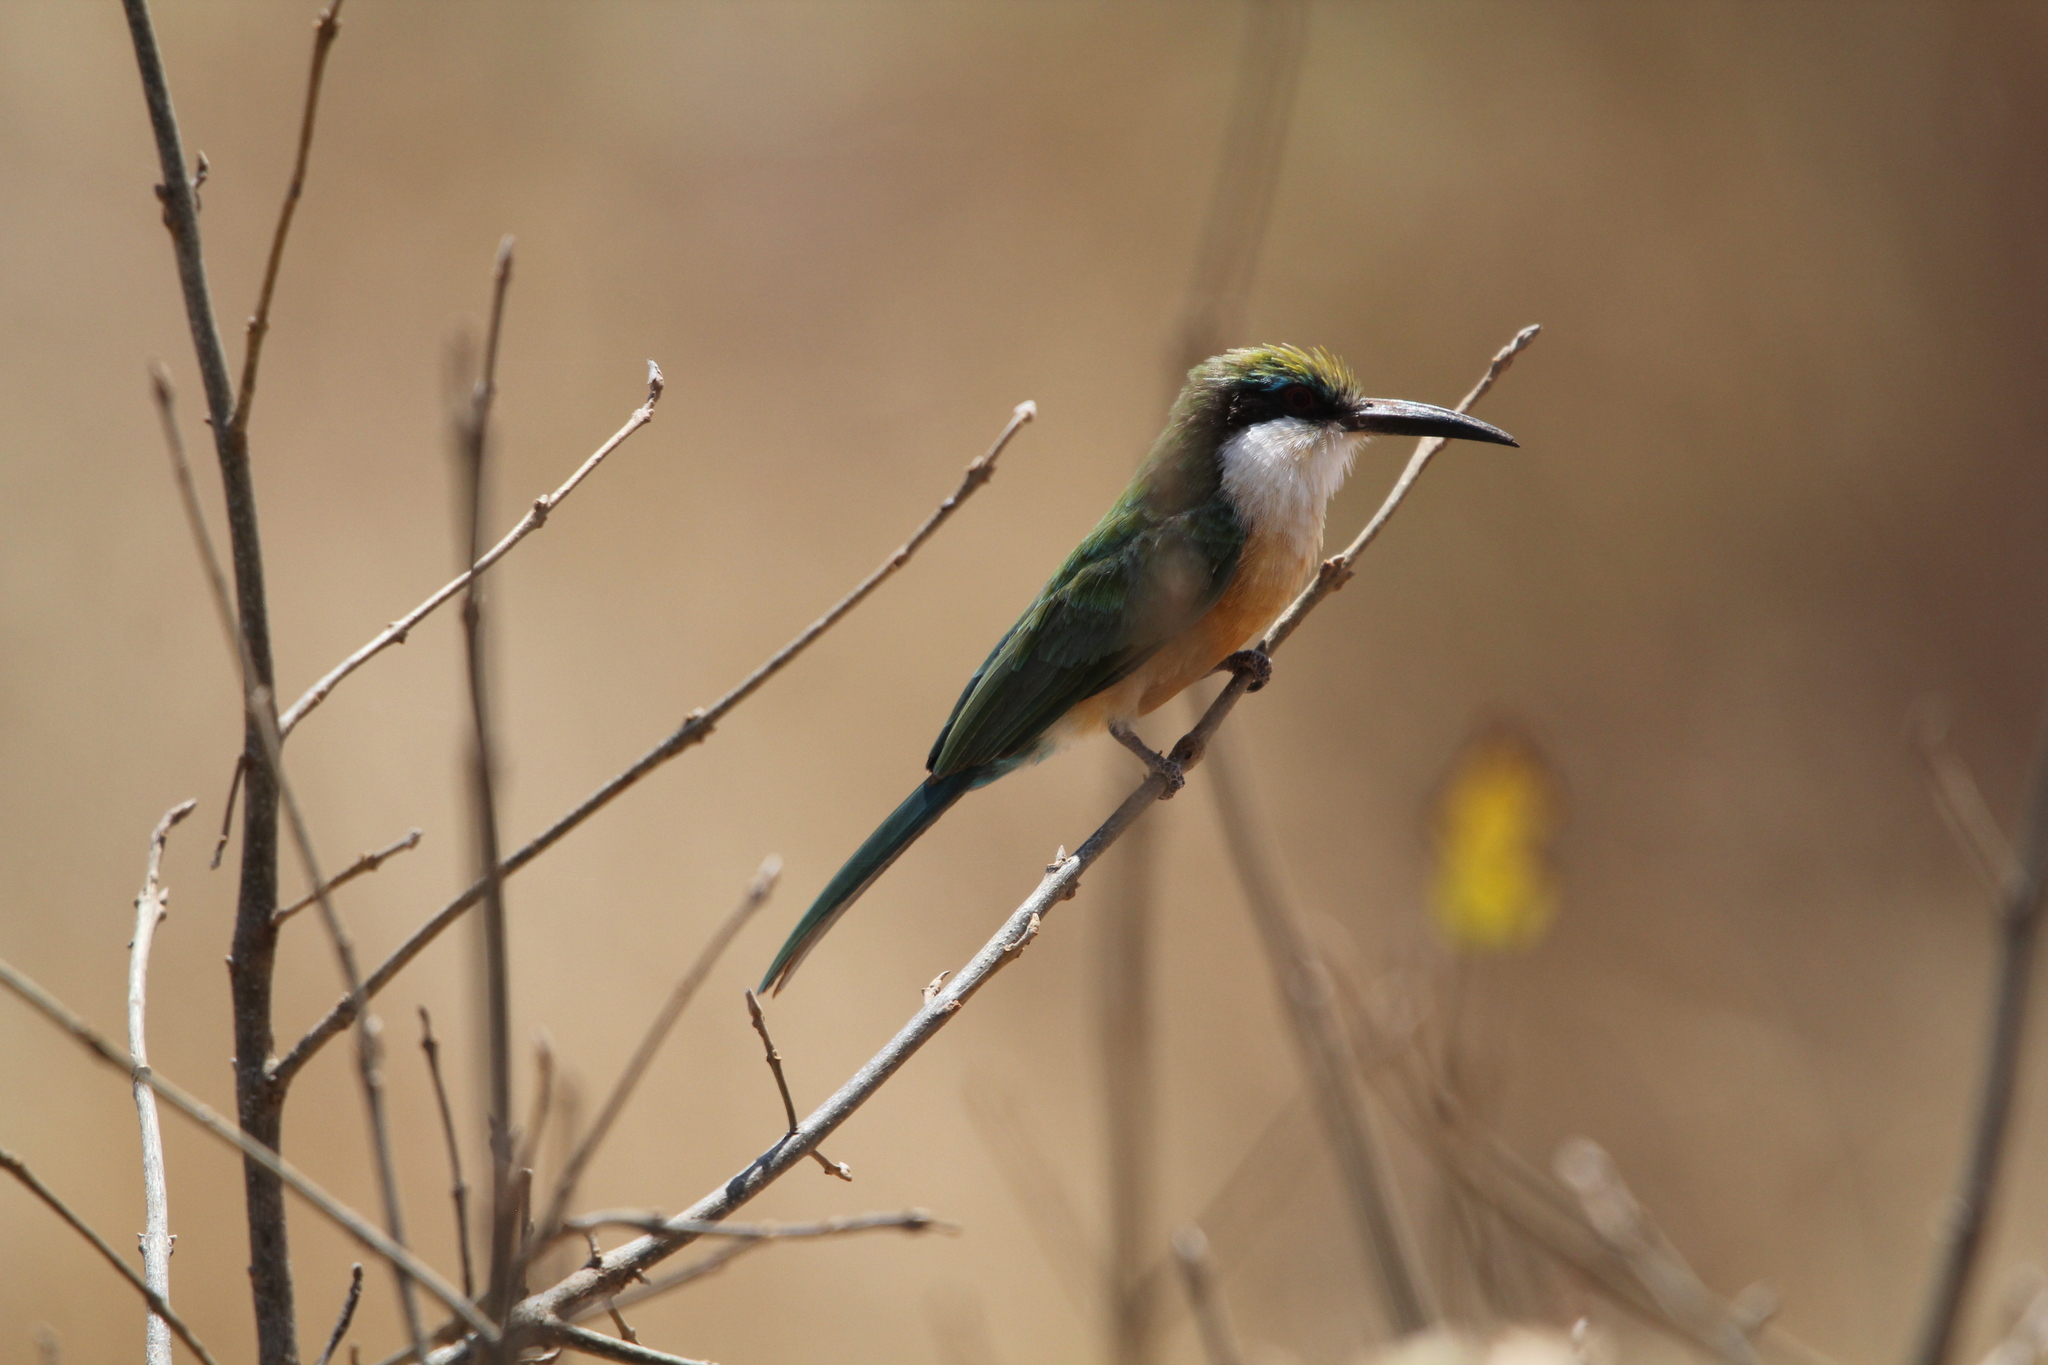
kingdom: Animalia
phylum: Chordata
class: Aves
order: Coraciiformes
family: Meropidae
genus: Merops
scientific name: Merops revoilii
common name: Somali bee-eater
